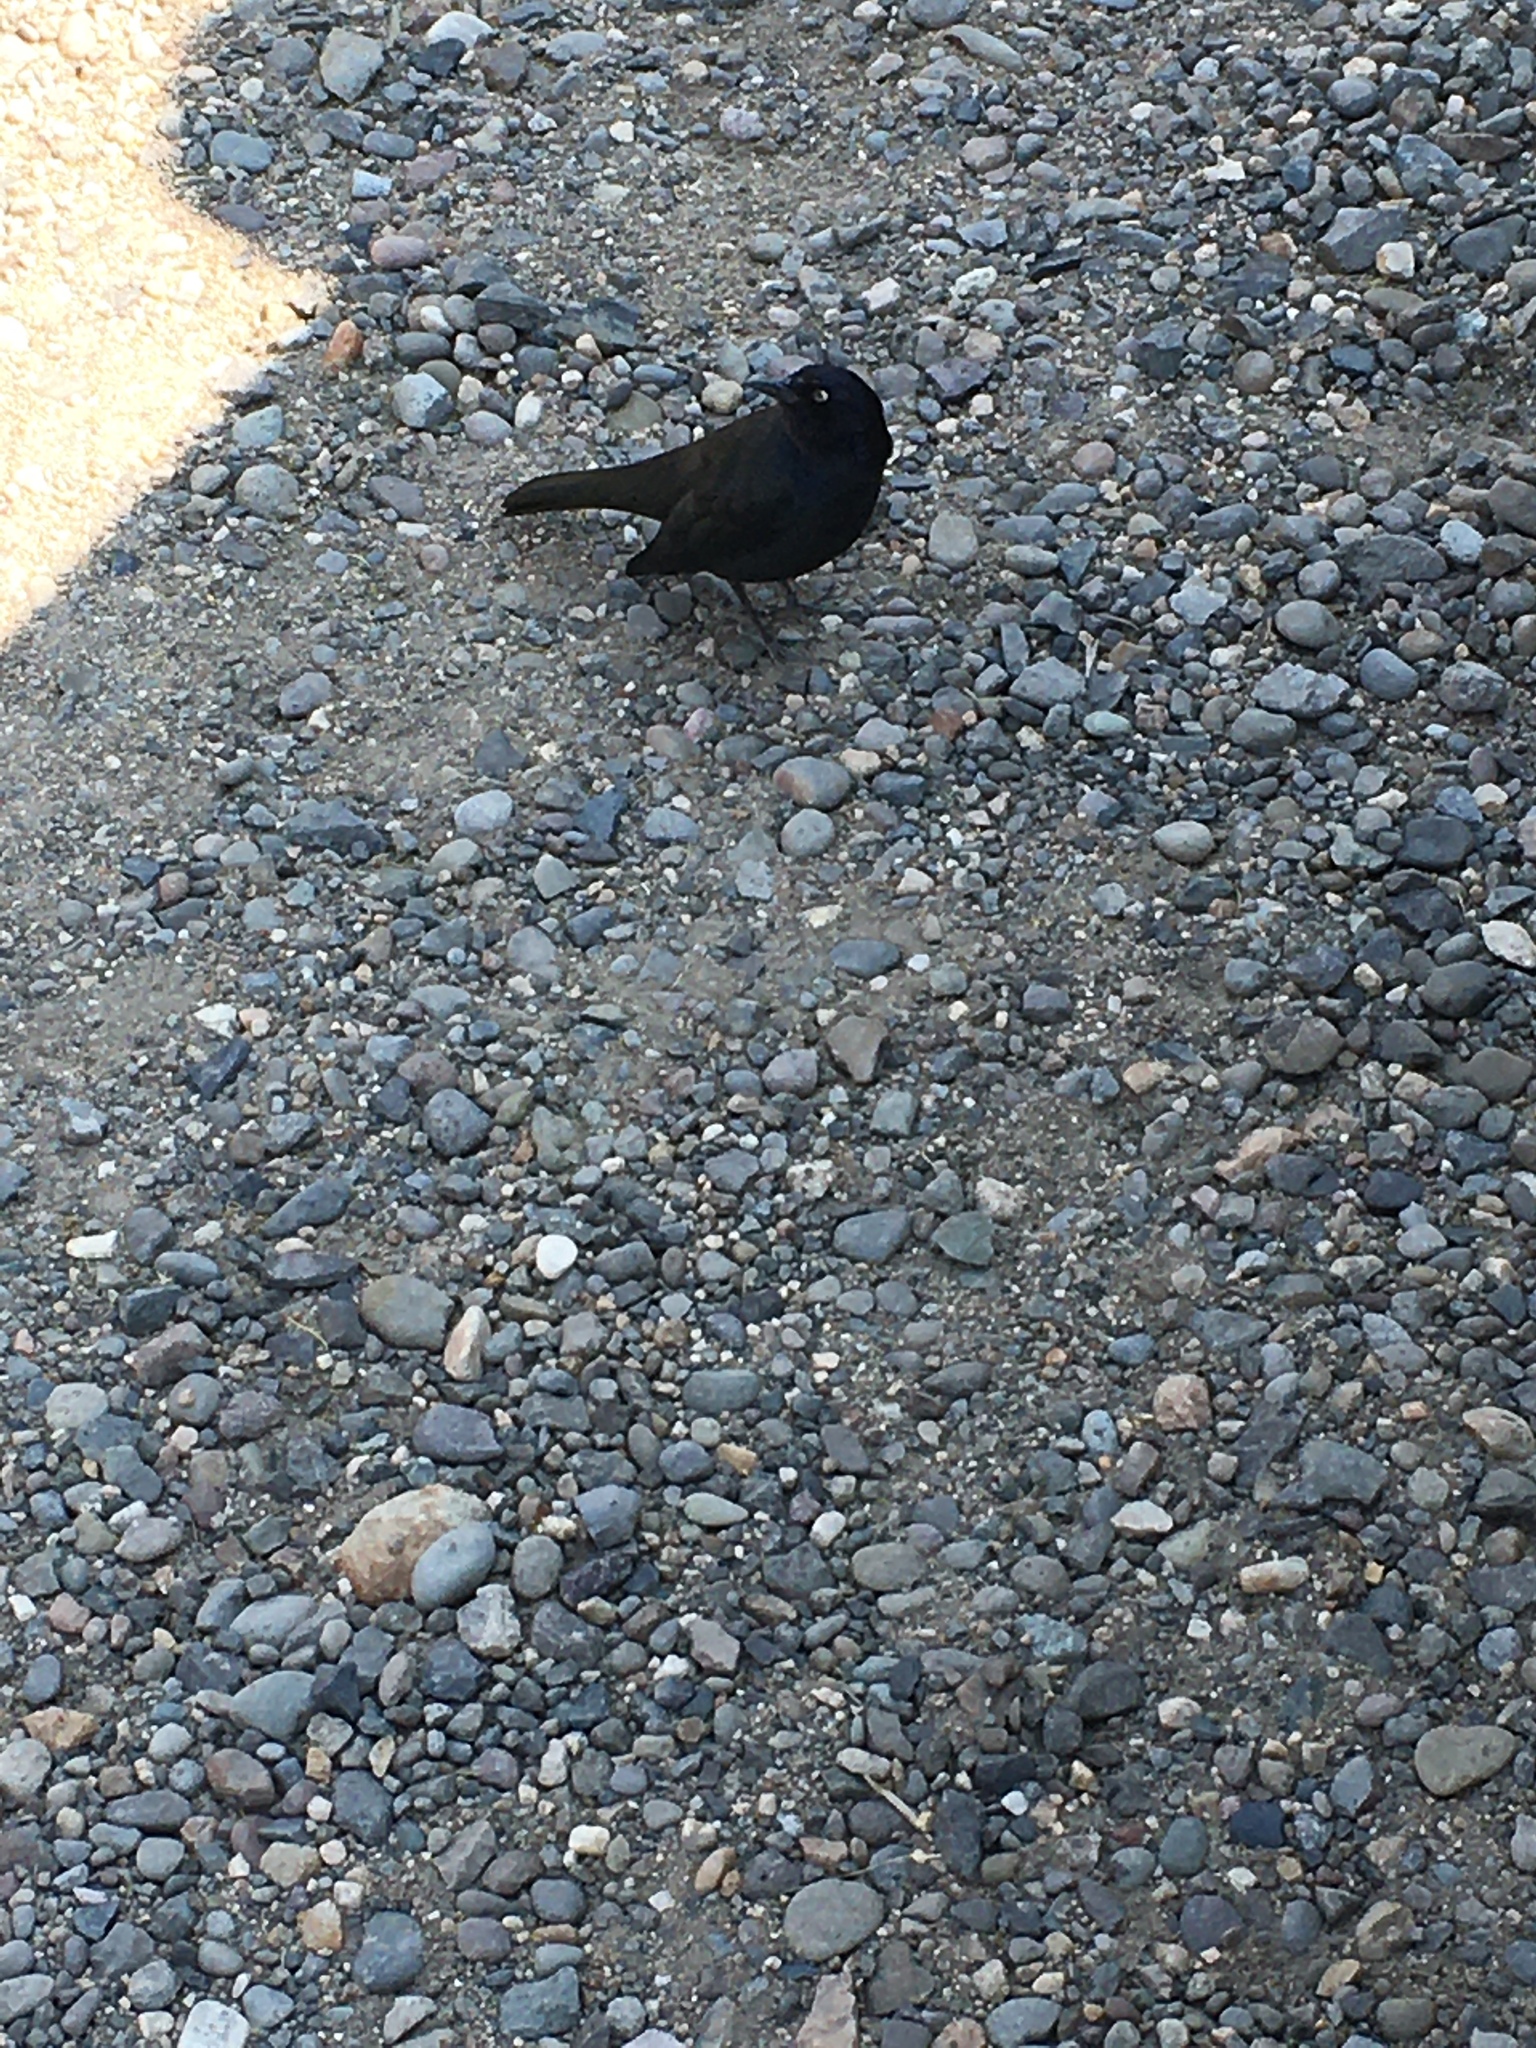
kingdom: Animalia
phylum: Chordata
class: Aves
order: Passeriformes
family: Icteridae
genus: Euphagus
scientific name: Euphagus cyanocephalus
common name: Brewer's blackbird
